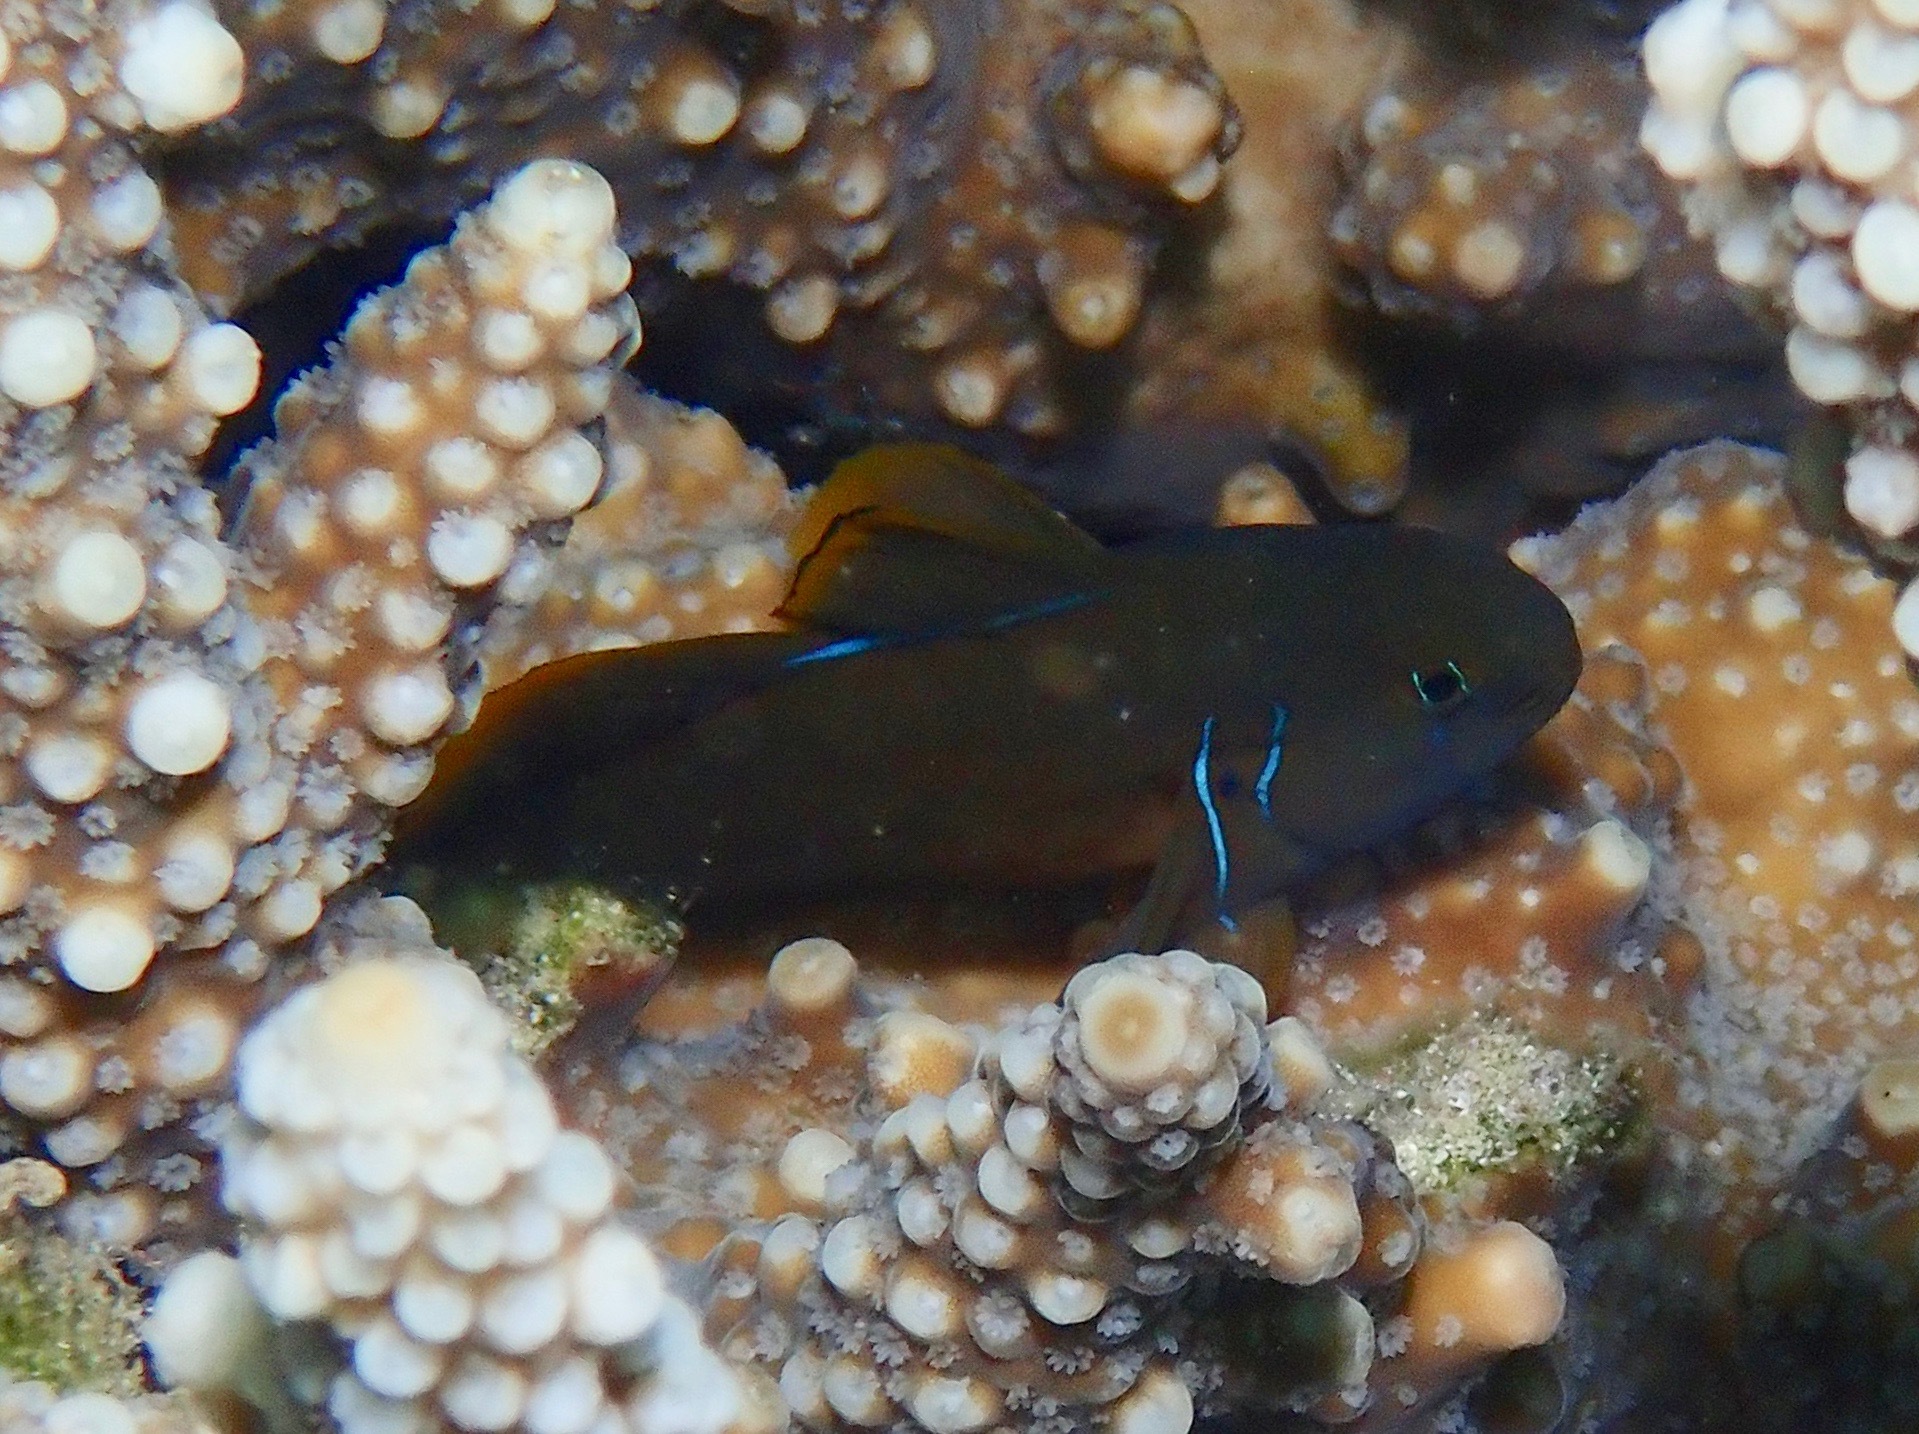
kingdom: Animalia
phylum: Chordata
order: Perciformes
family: Gobiidae
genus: Gobiodon
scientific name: Gobiodon citrinus
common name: Citron goby
